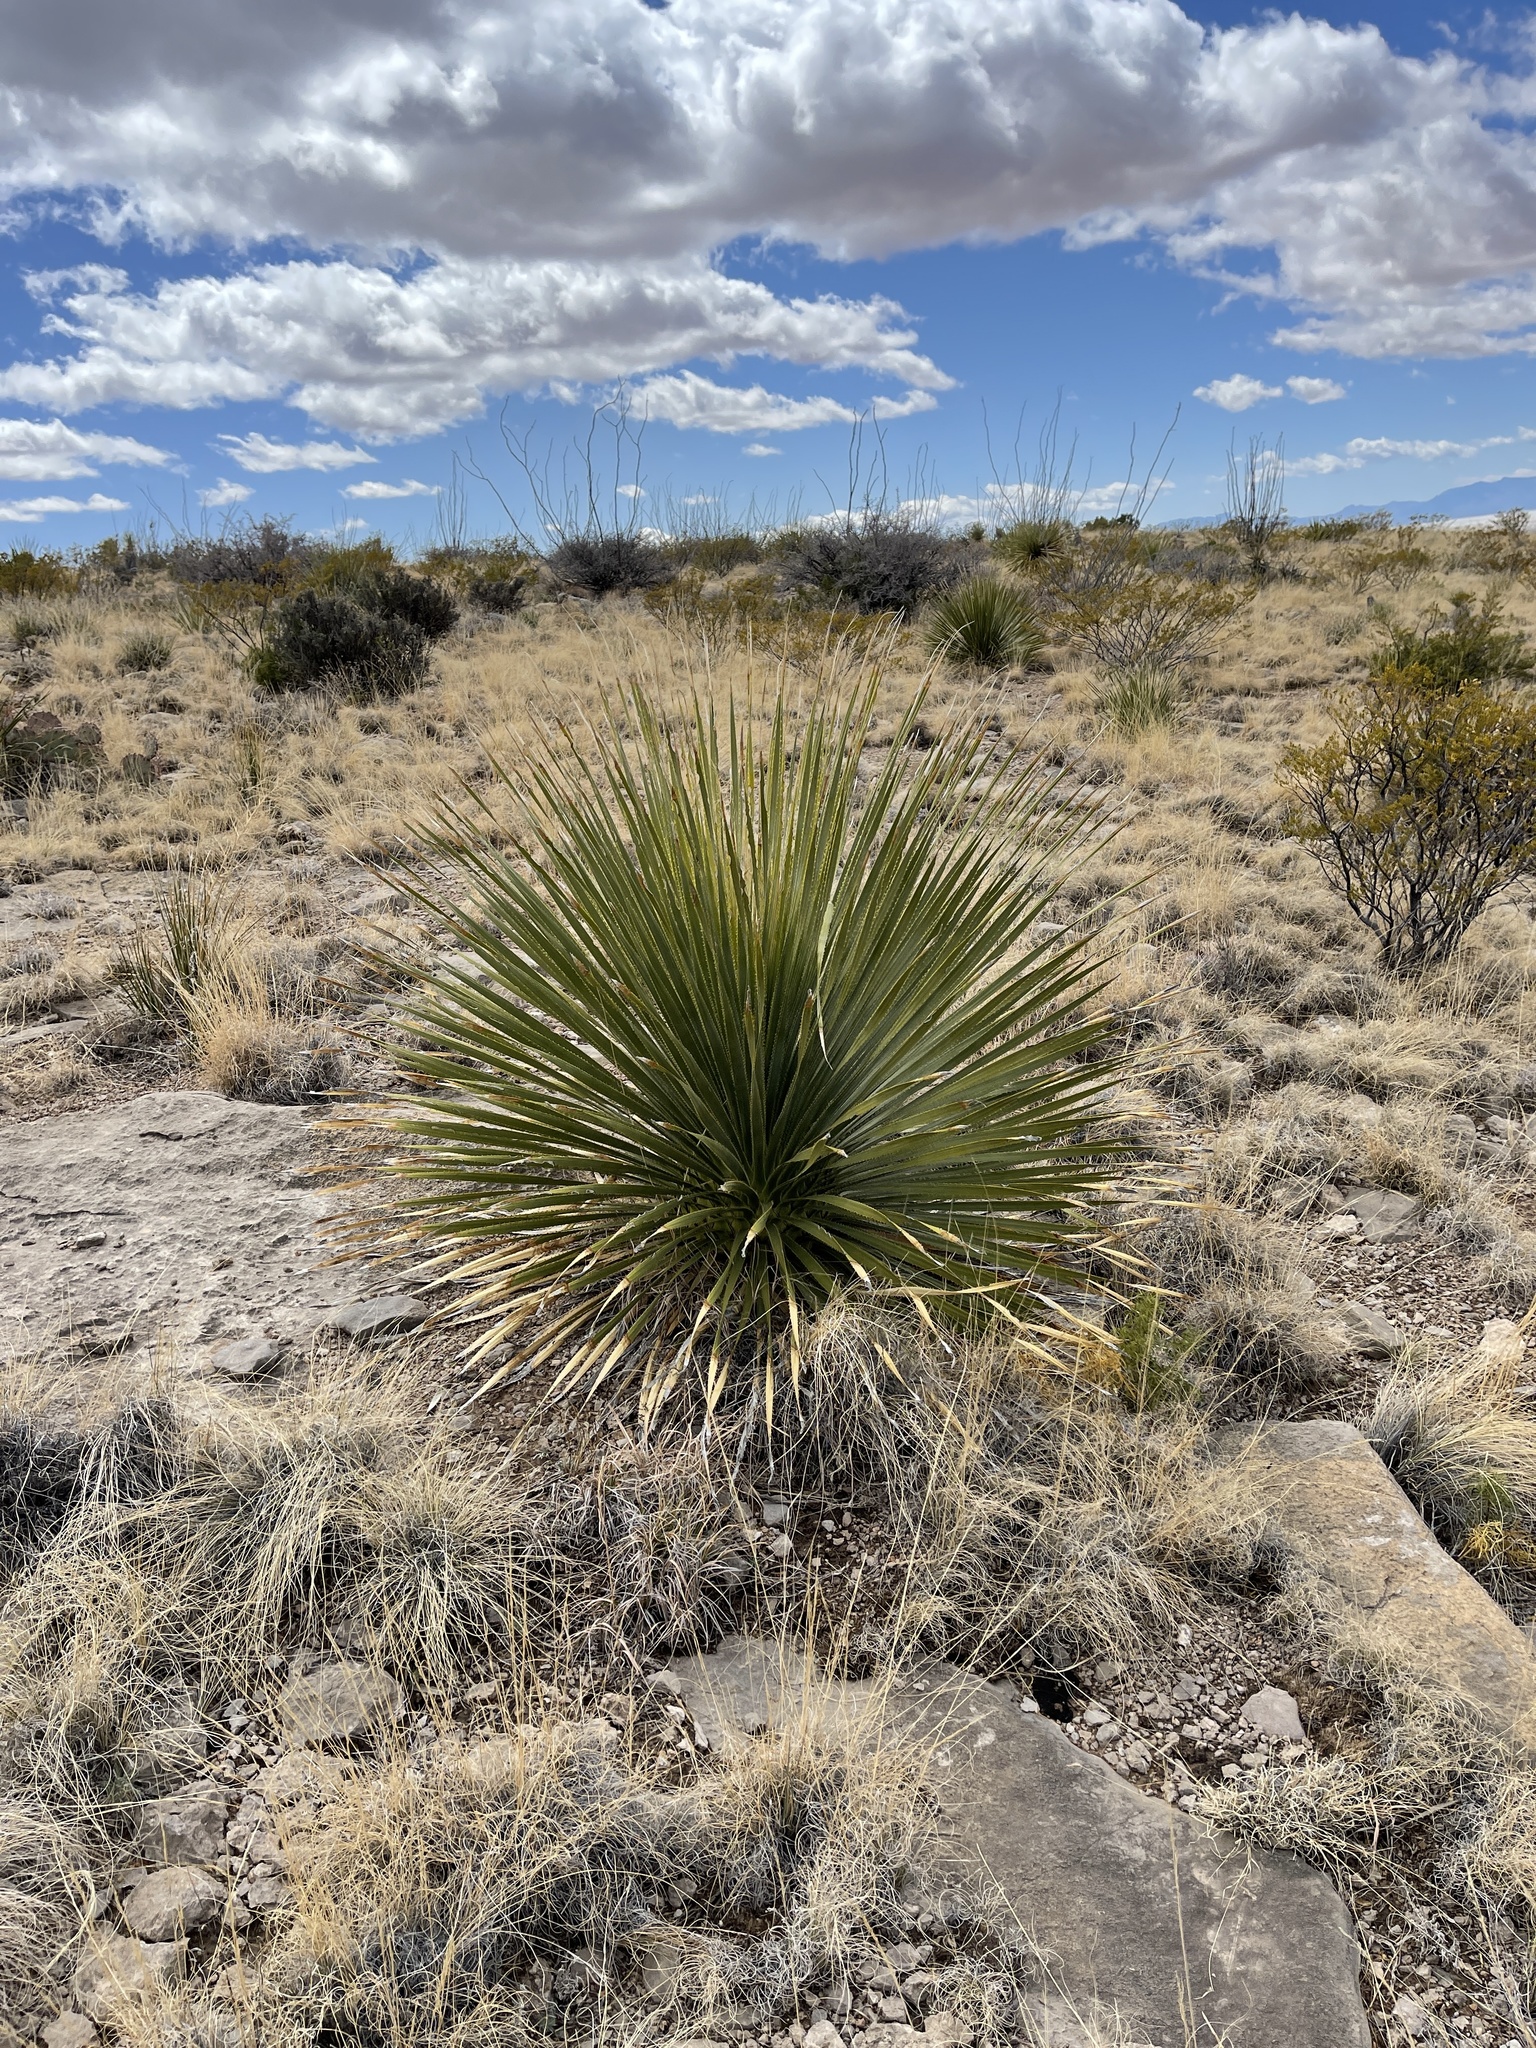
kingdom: Plantae
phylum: Tracheophyta
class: Liliopsida
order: Asparagales
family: Asparagaceae
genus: Dasylirion
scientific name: Dasylirion wheeleri
